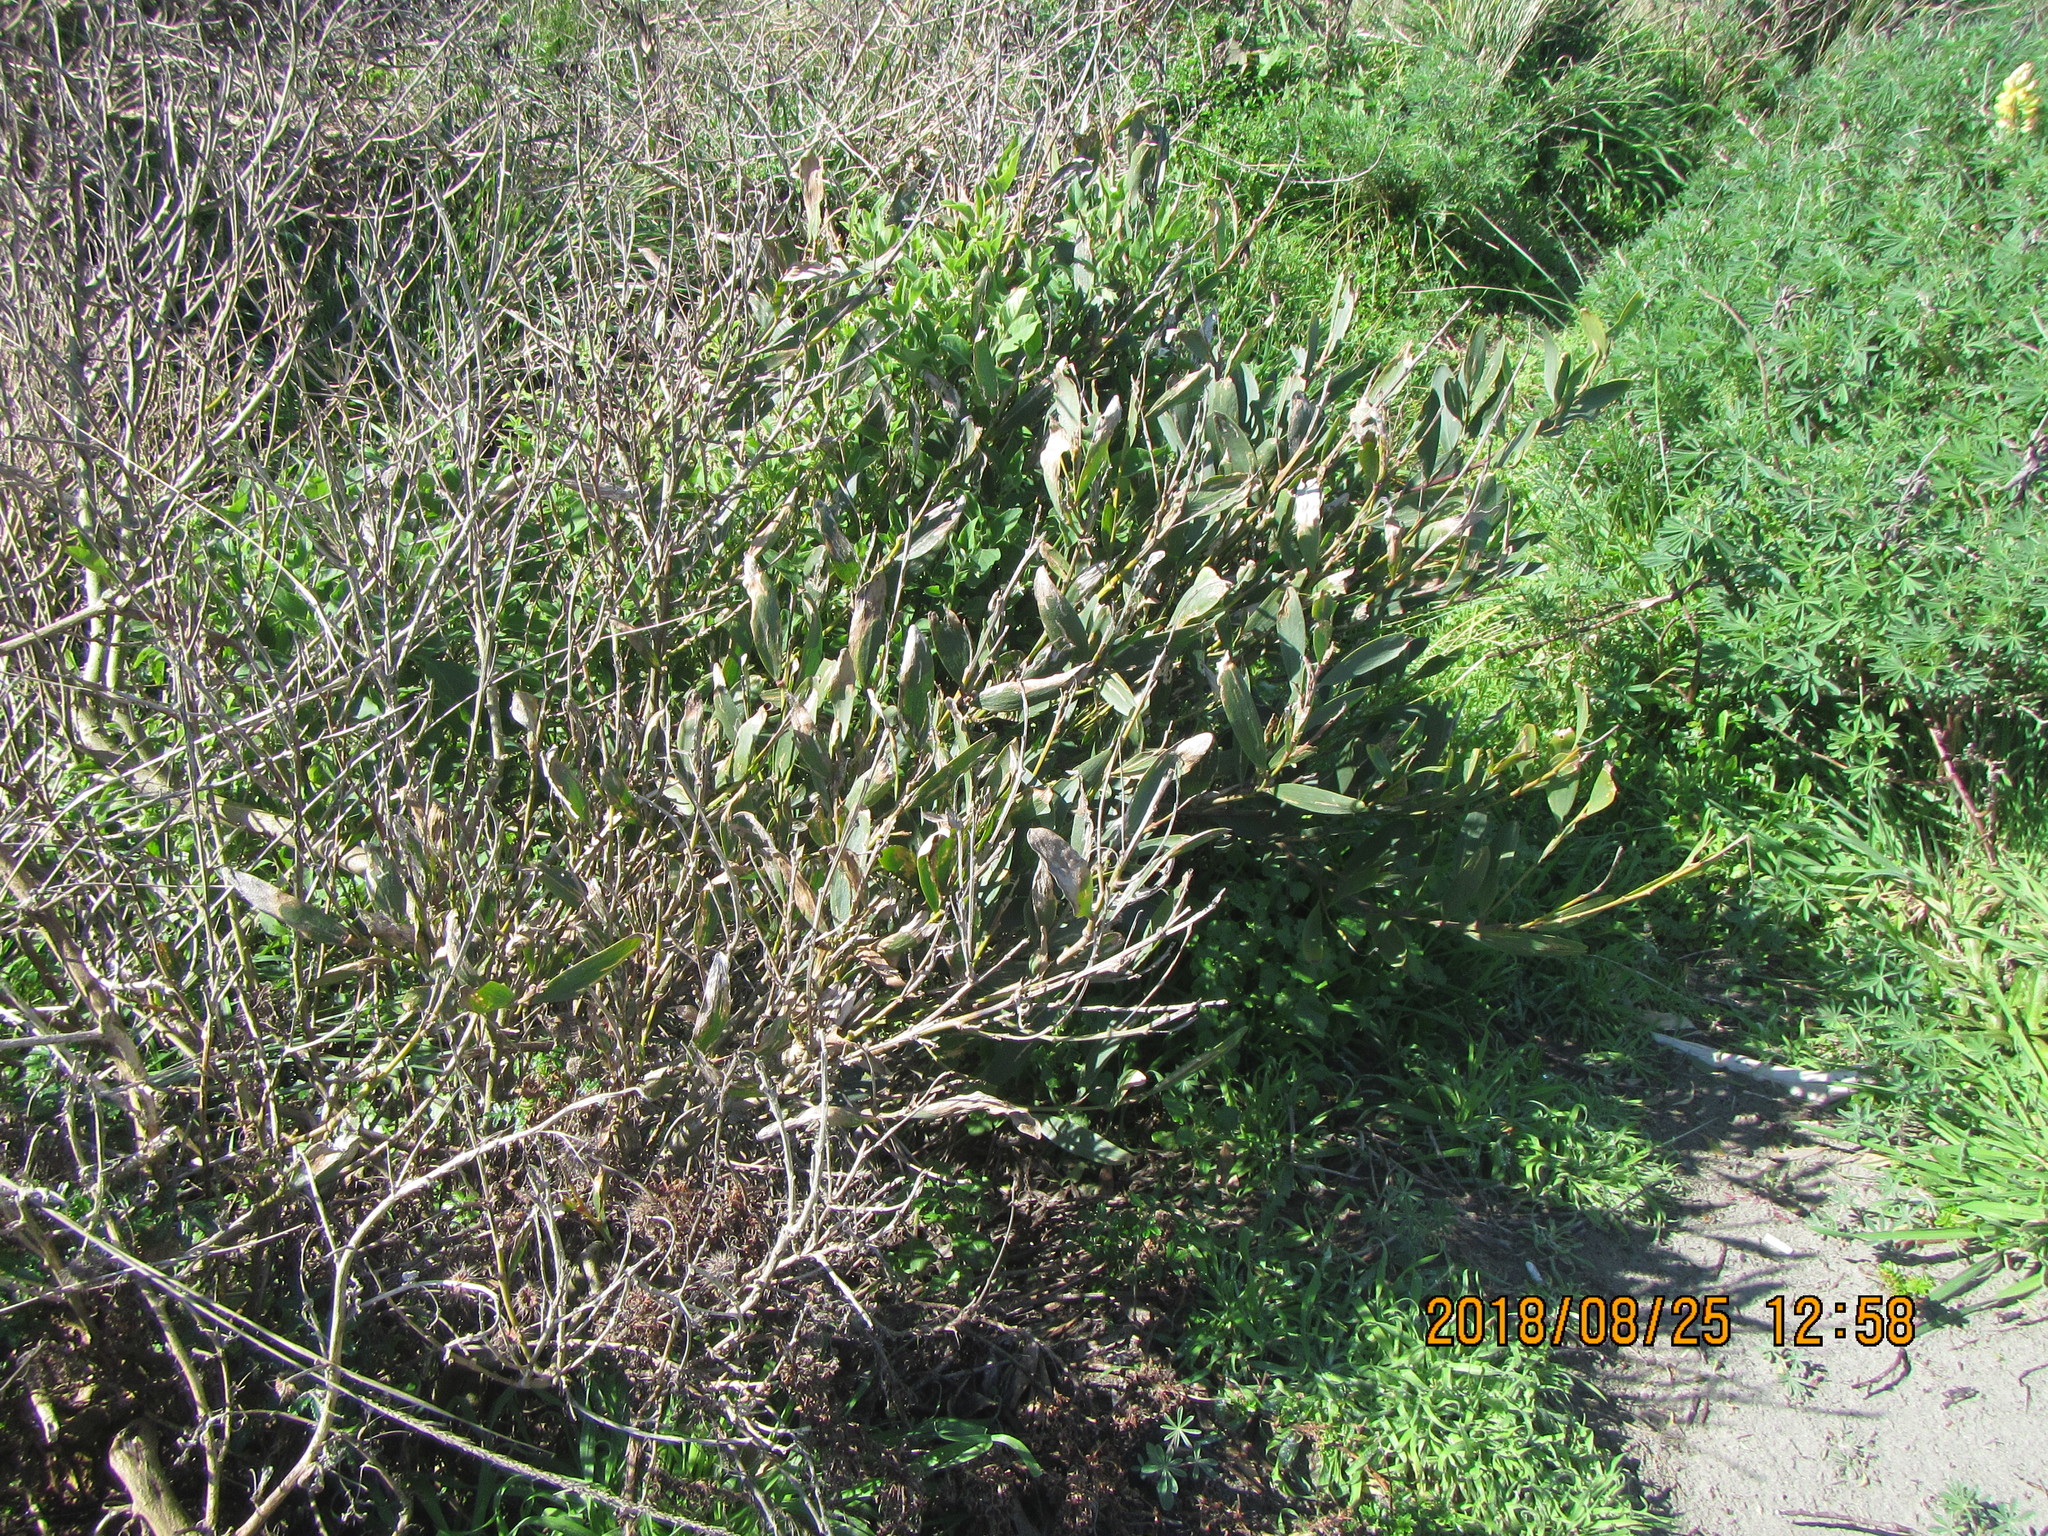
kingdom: Plantae
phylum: Tracheophyta
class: Magnoliopsida
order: Fabales
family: Fabaceae
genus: Acacia
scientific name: Acacia longifolia
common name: Sydney golden wattle
